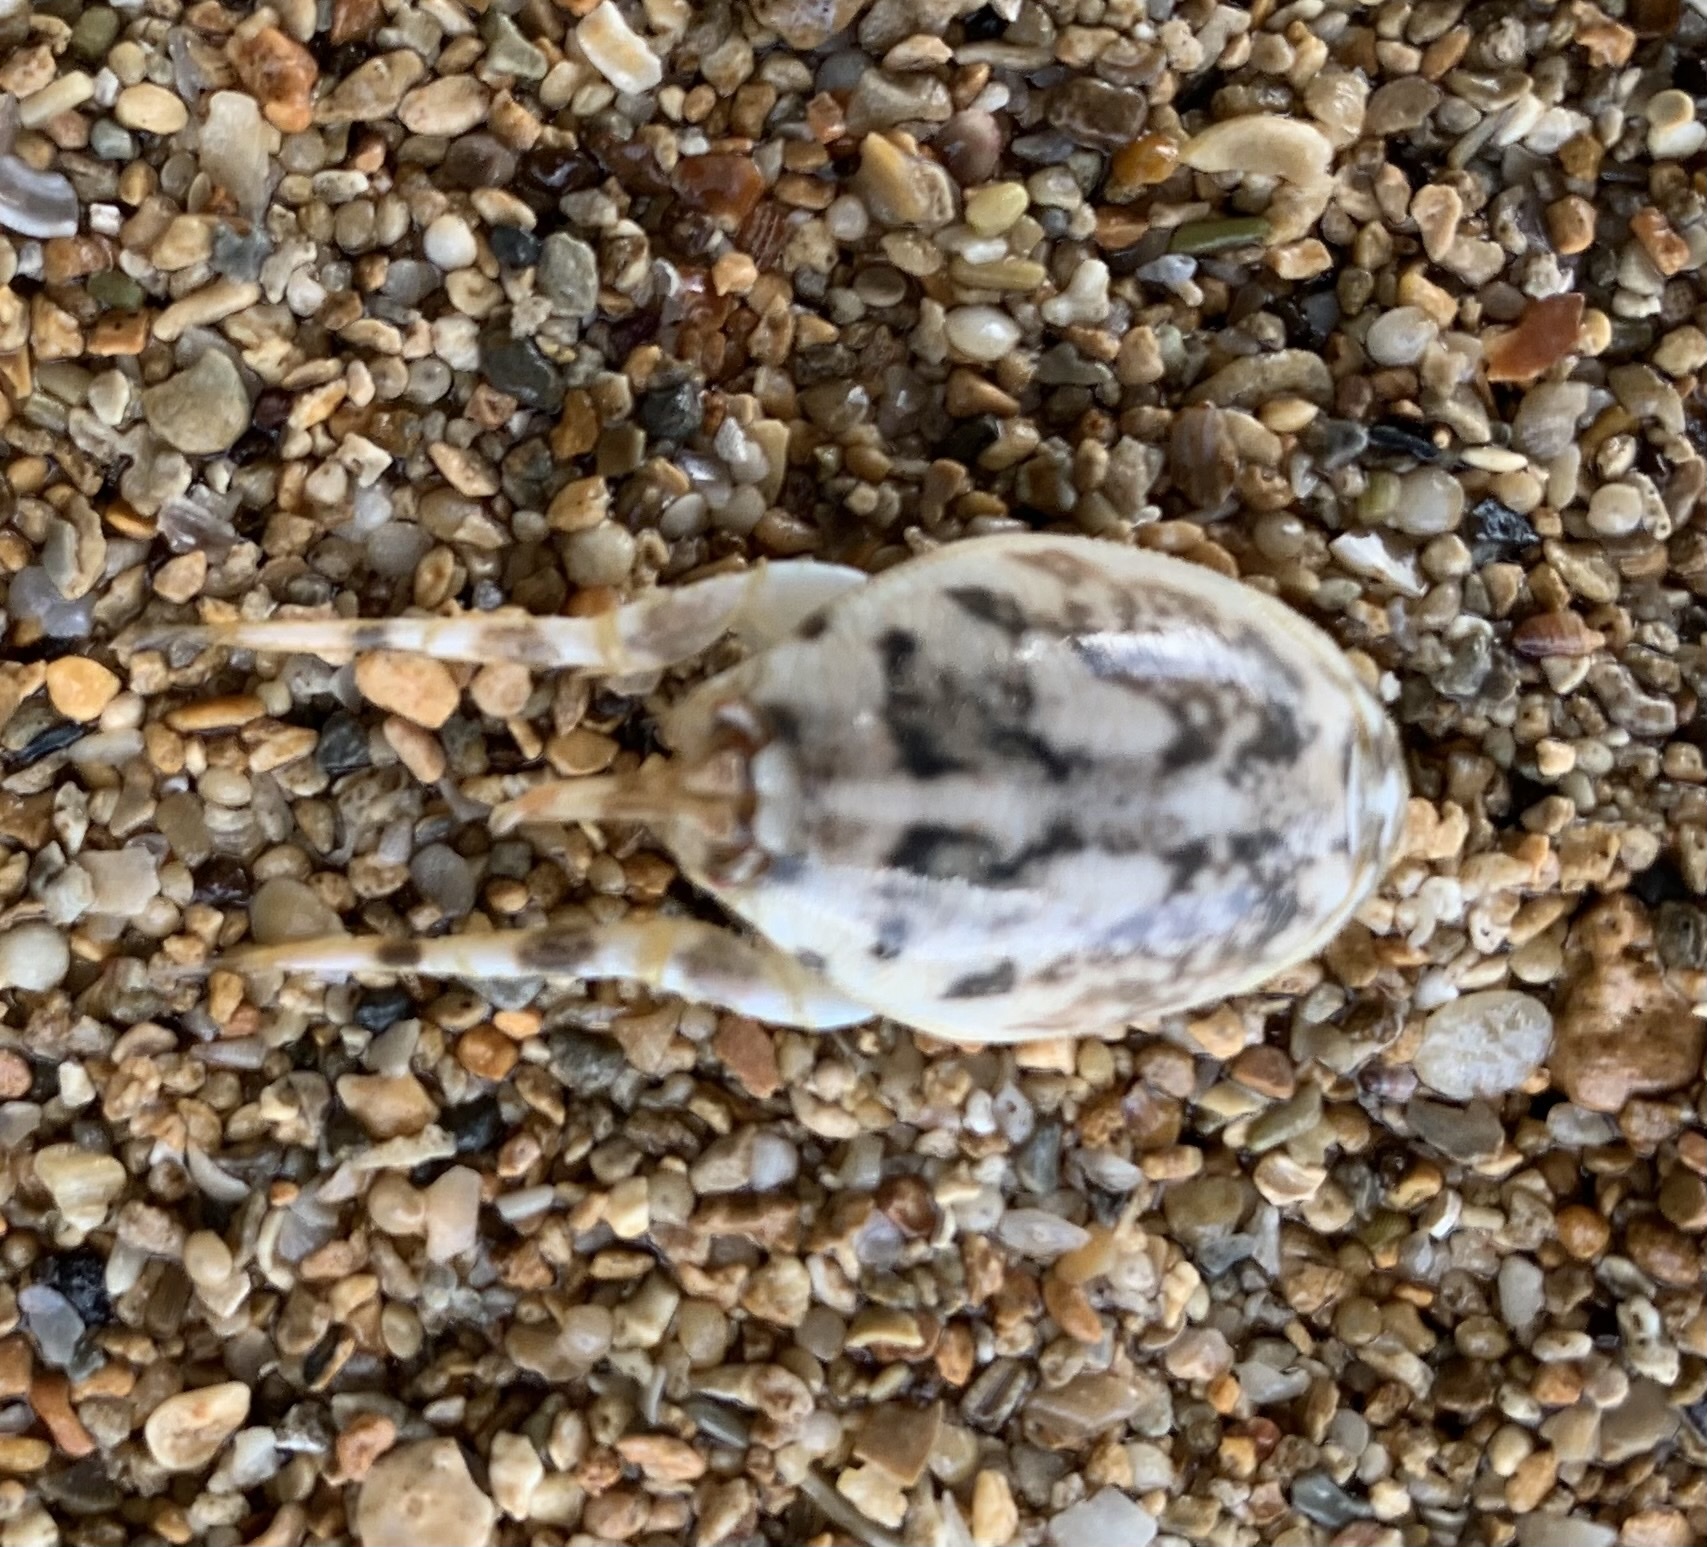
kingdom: Animalia
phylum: Arthropoda
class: Malacostraca
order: Decapoda
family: Hippidae
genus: Hippa
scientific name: Hippa marmorata
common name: Pacific mole crab
